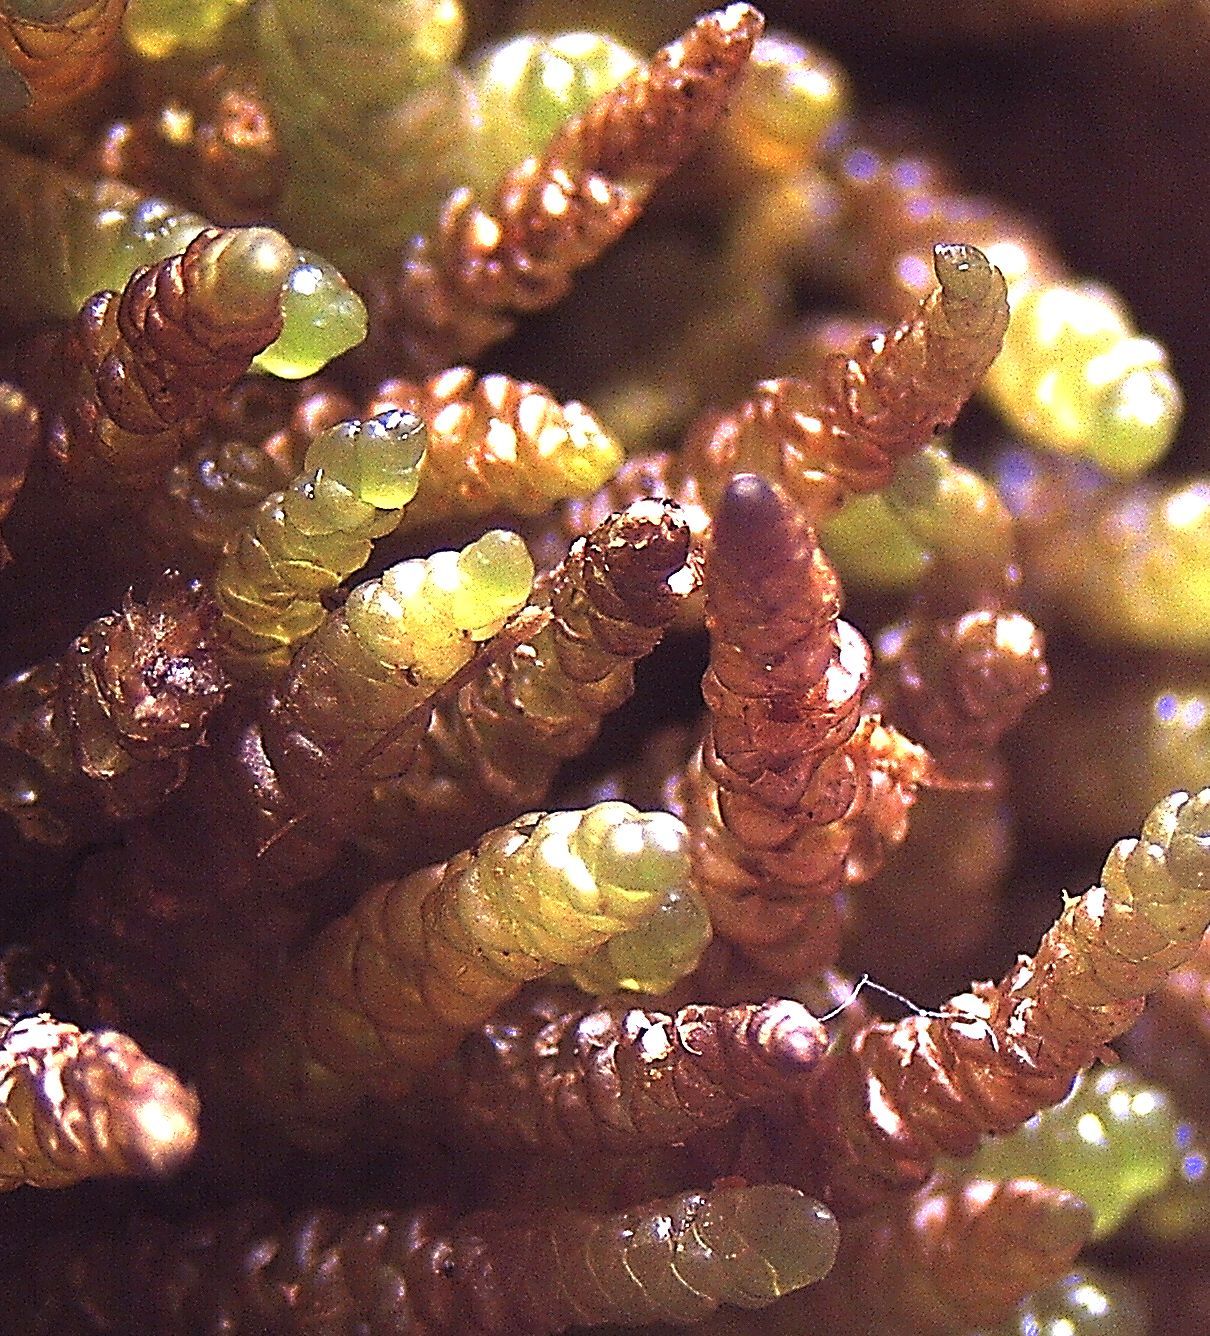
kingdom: Plantae
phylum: Bryophyta
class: Bryopsida
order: Hypnales
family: Lembophyllaceae
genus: Lembophyllum
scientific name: Lembophyllum divulsum
